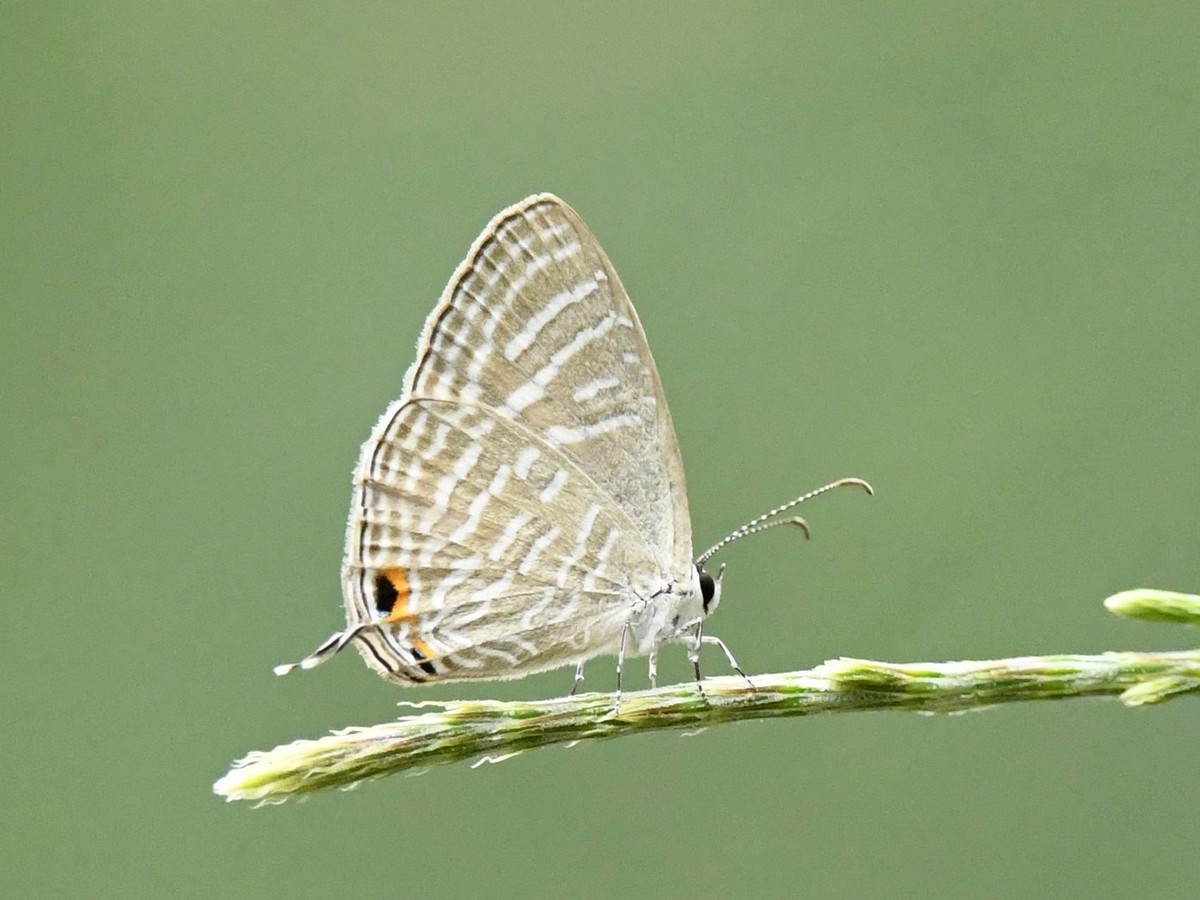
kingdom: Animalia
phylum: Arthropoda
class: Insecta
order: Lepidoptera
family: Lycaenidae
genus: Jamides
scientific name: Jamides celeno
